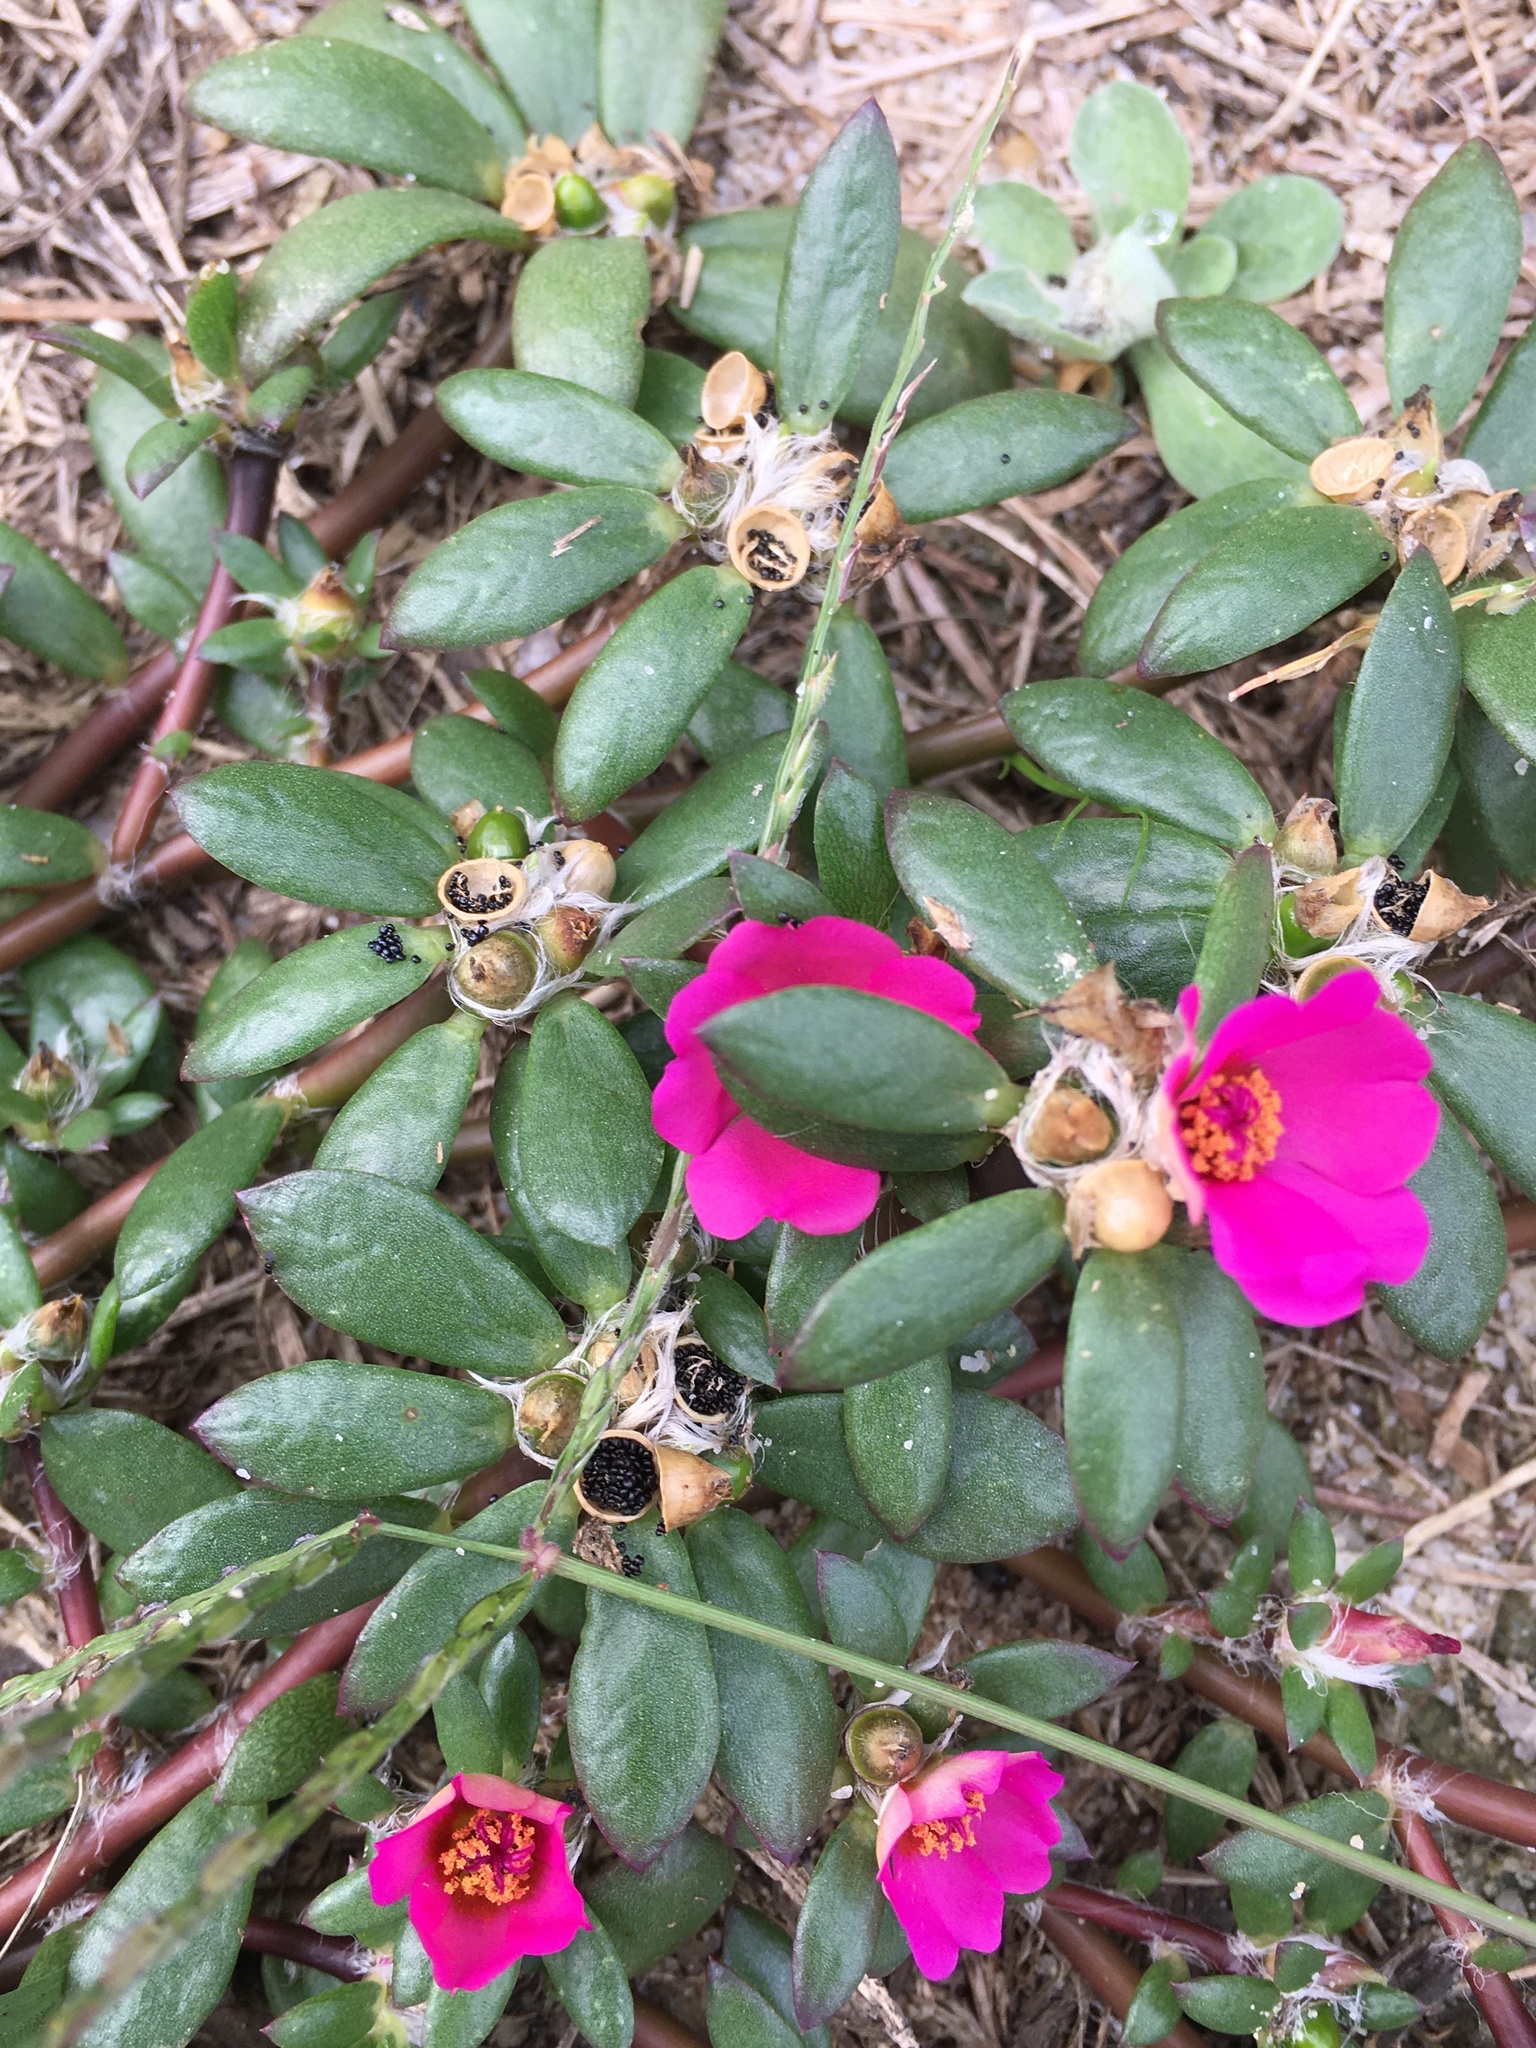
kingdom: Plantae
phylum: Tracheophyta
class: Magnoliopsida
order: Caryophyllales
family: Portulacaceae
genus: Portulaca
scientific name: Portulaca amilis
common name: Paraguayan purslane
